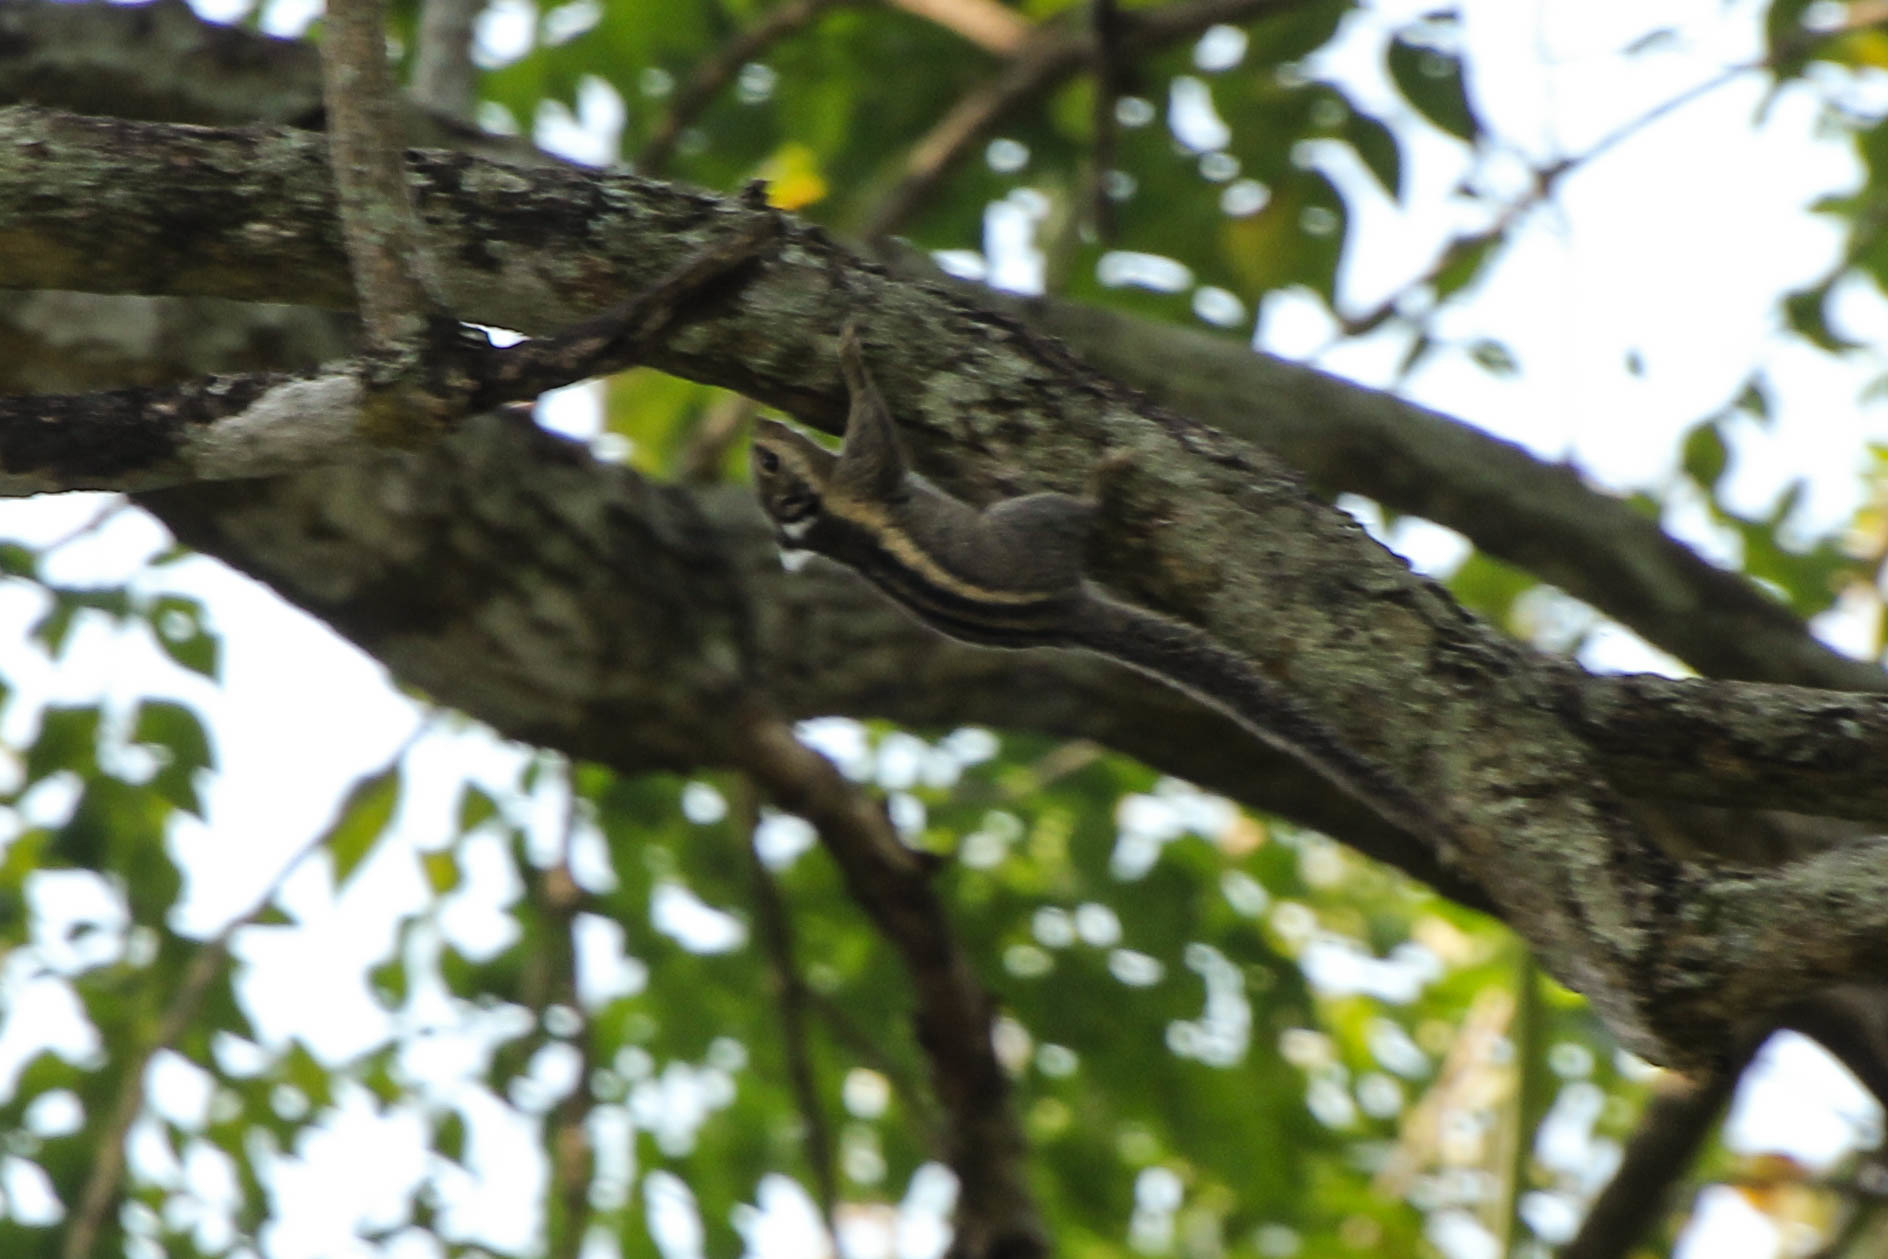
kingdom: Animalia
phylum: Chordata
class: Mammalia
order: Rodentia
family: Sciuridae
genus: Tamiops
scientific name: Tamiops mcclellandii
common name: Himalayan striped squirrel
